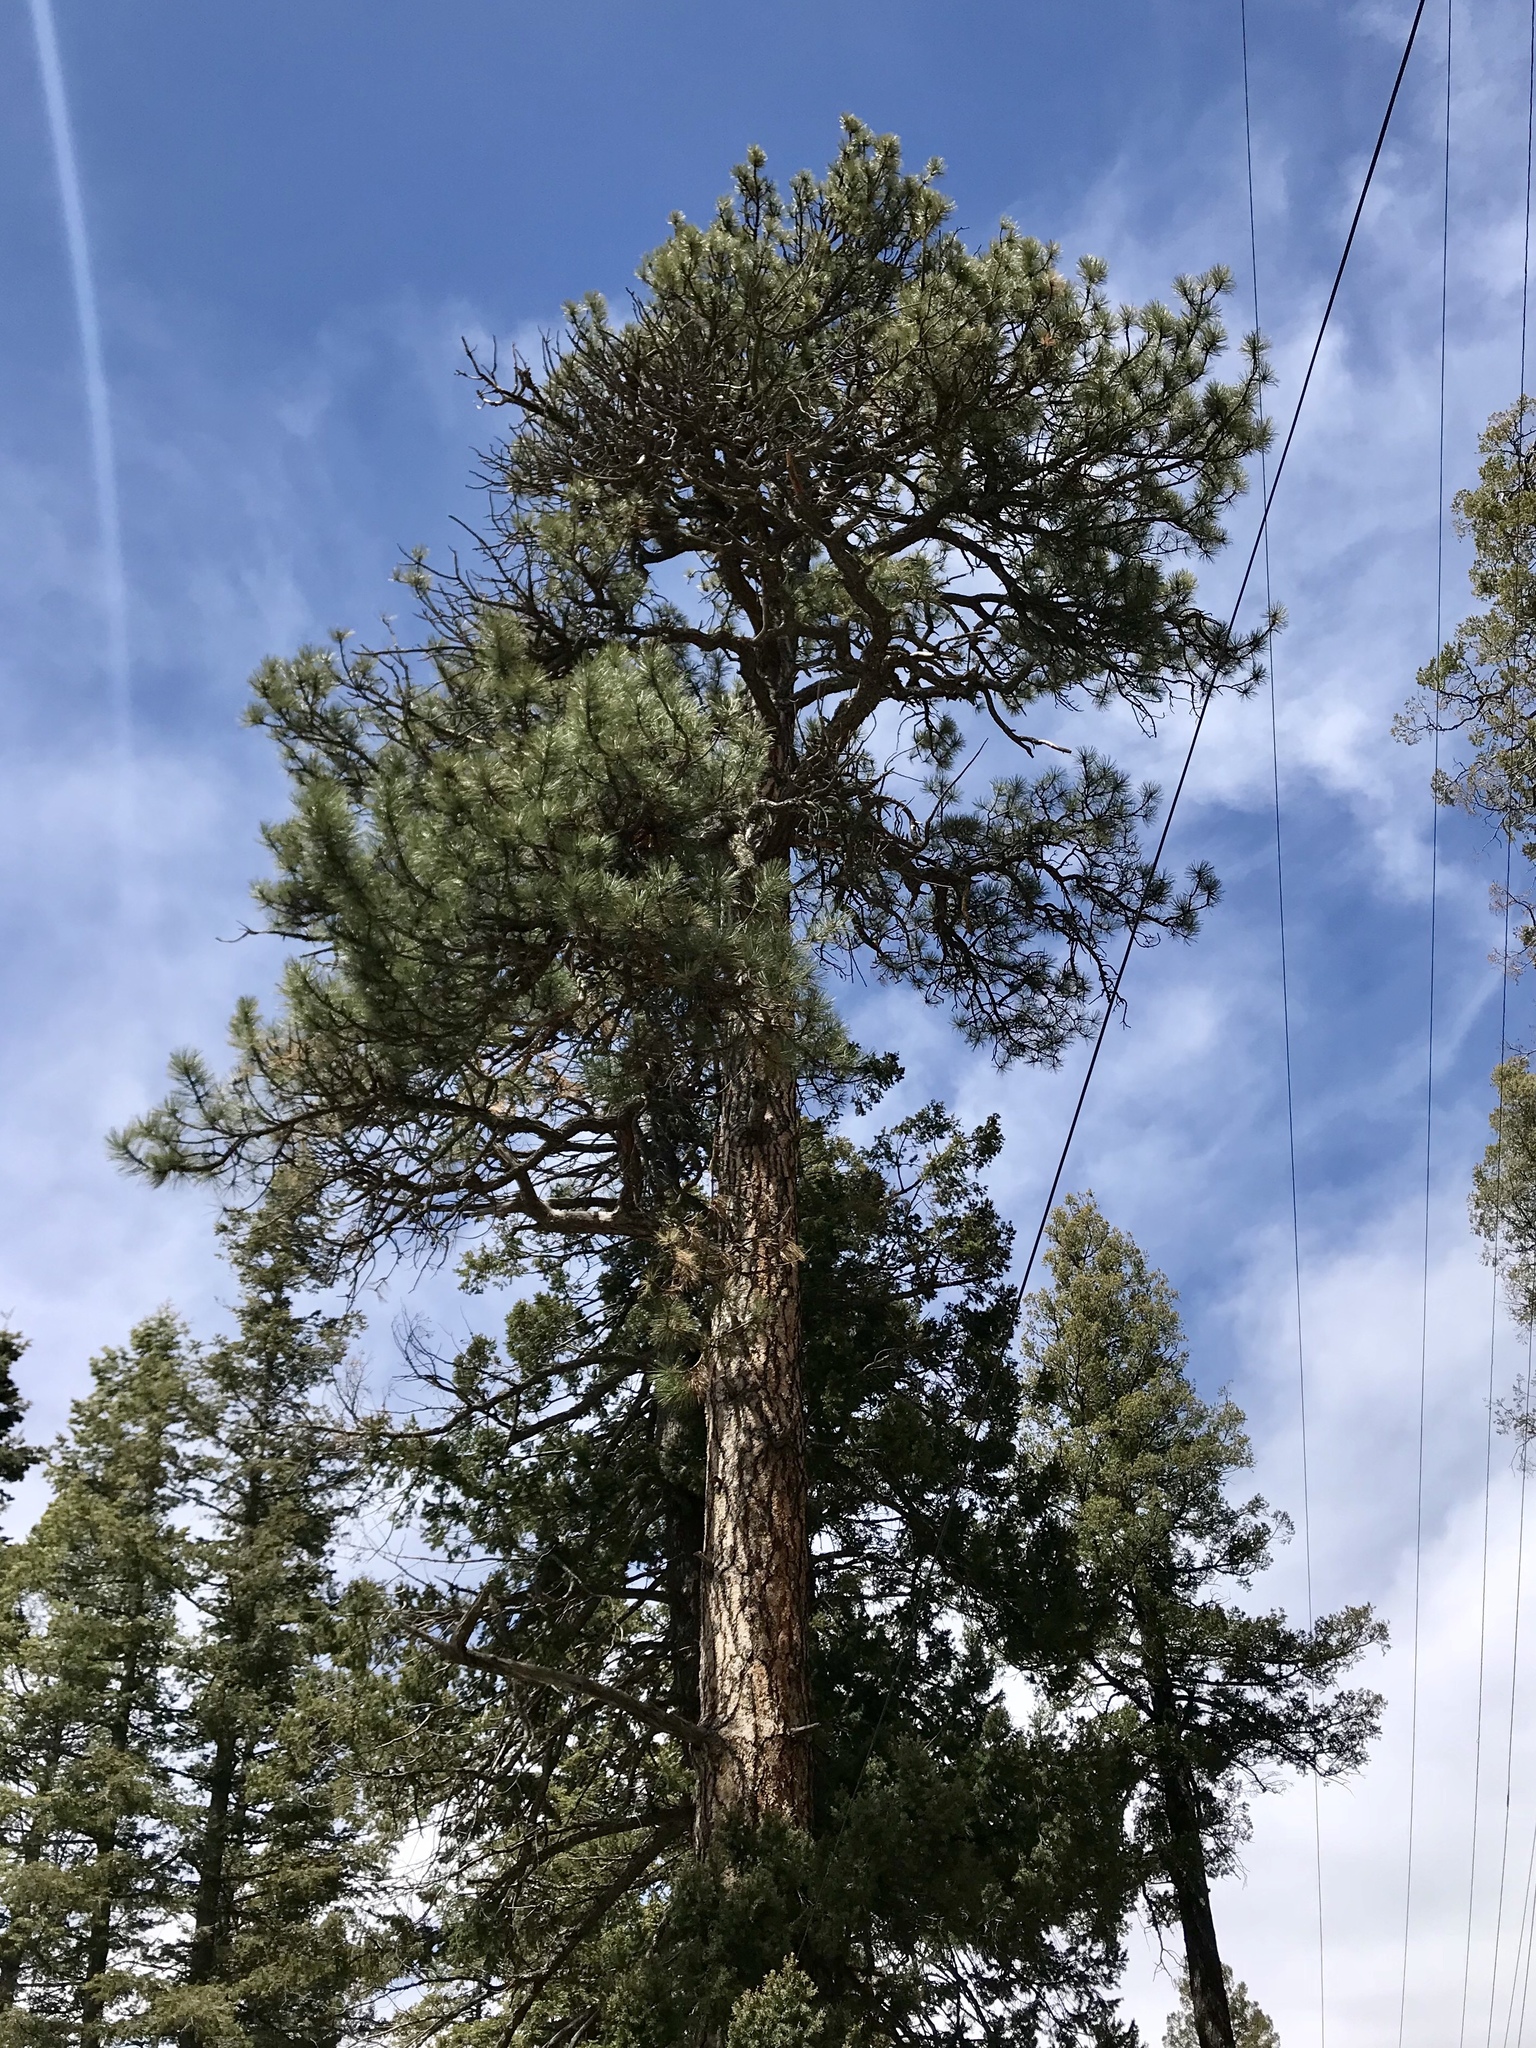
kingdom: Plantae
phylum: Tracheophyta
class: Pinopsida
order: Pinales
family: Pinaceae
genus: Pinus
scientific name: Pinus ponderosa
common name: Western yellow-pine
